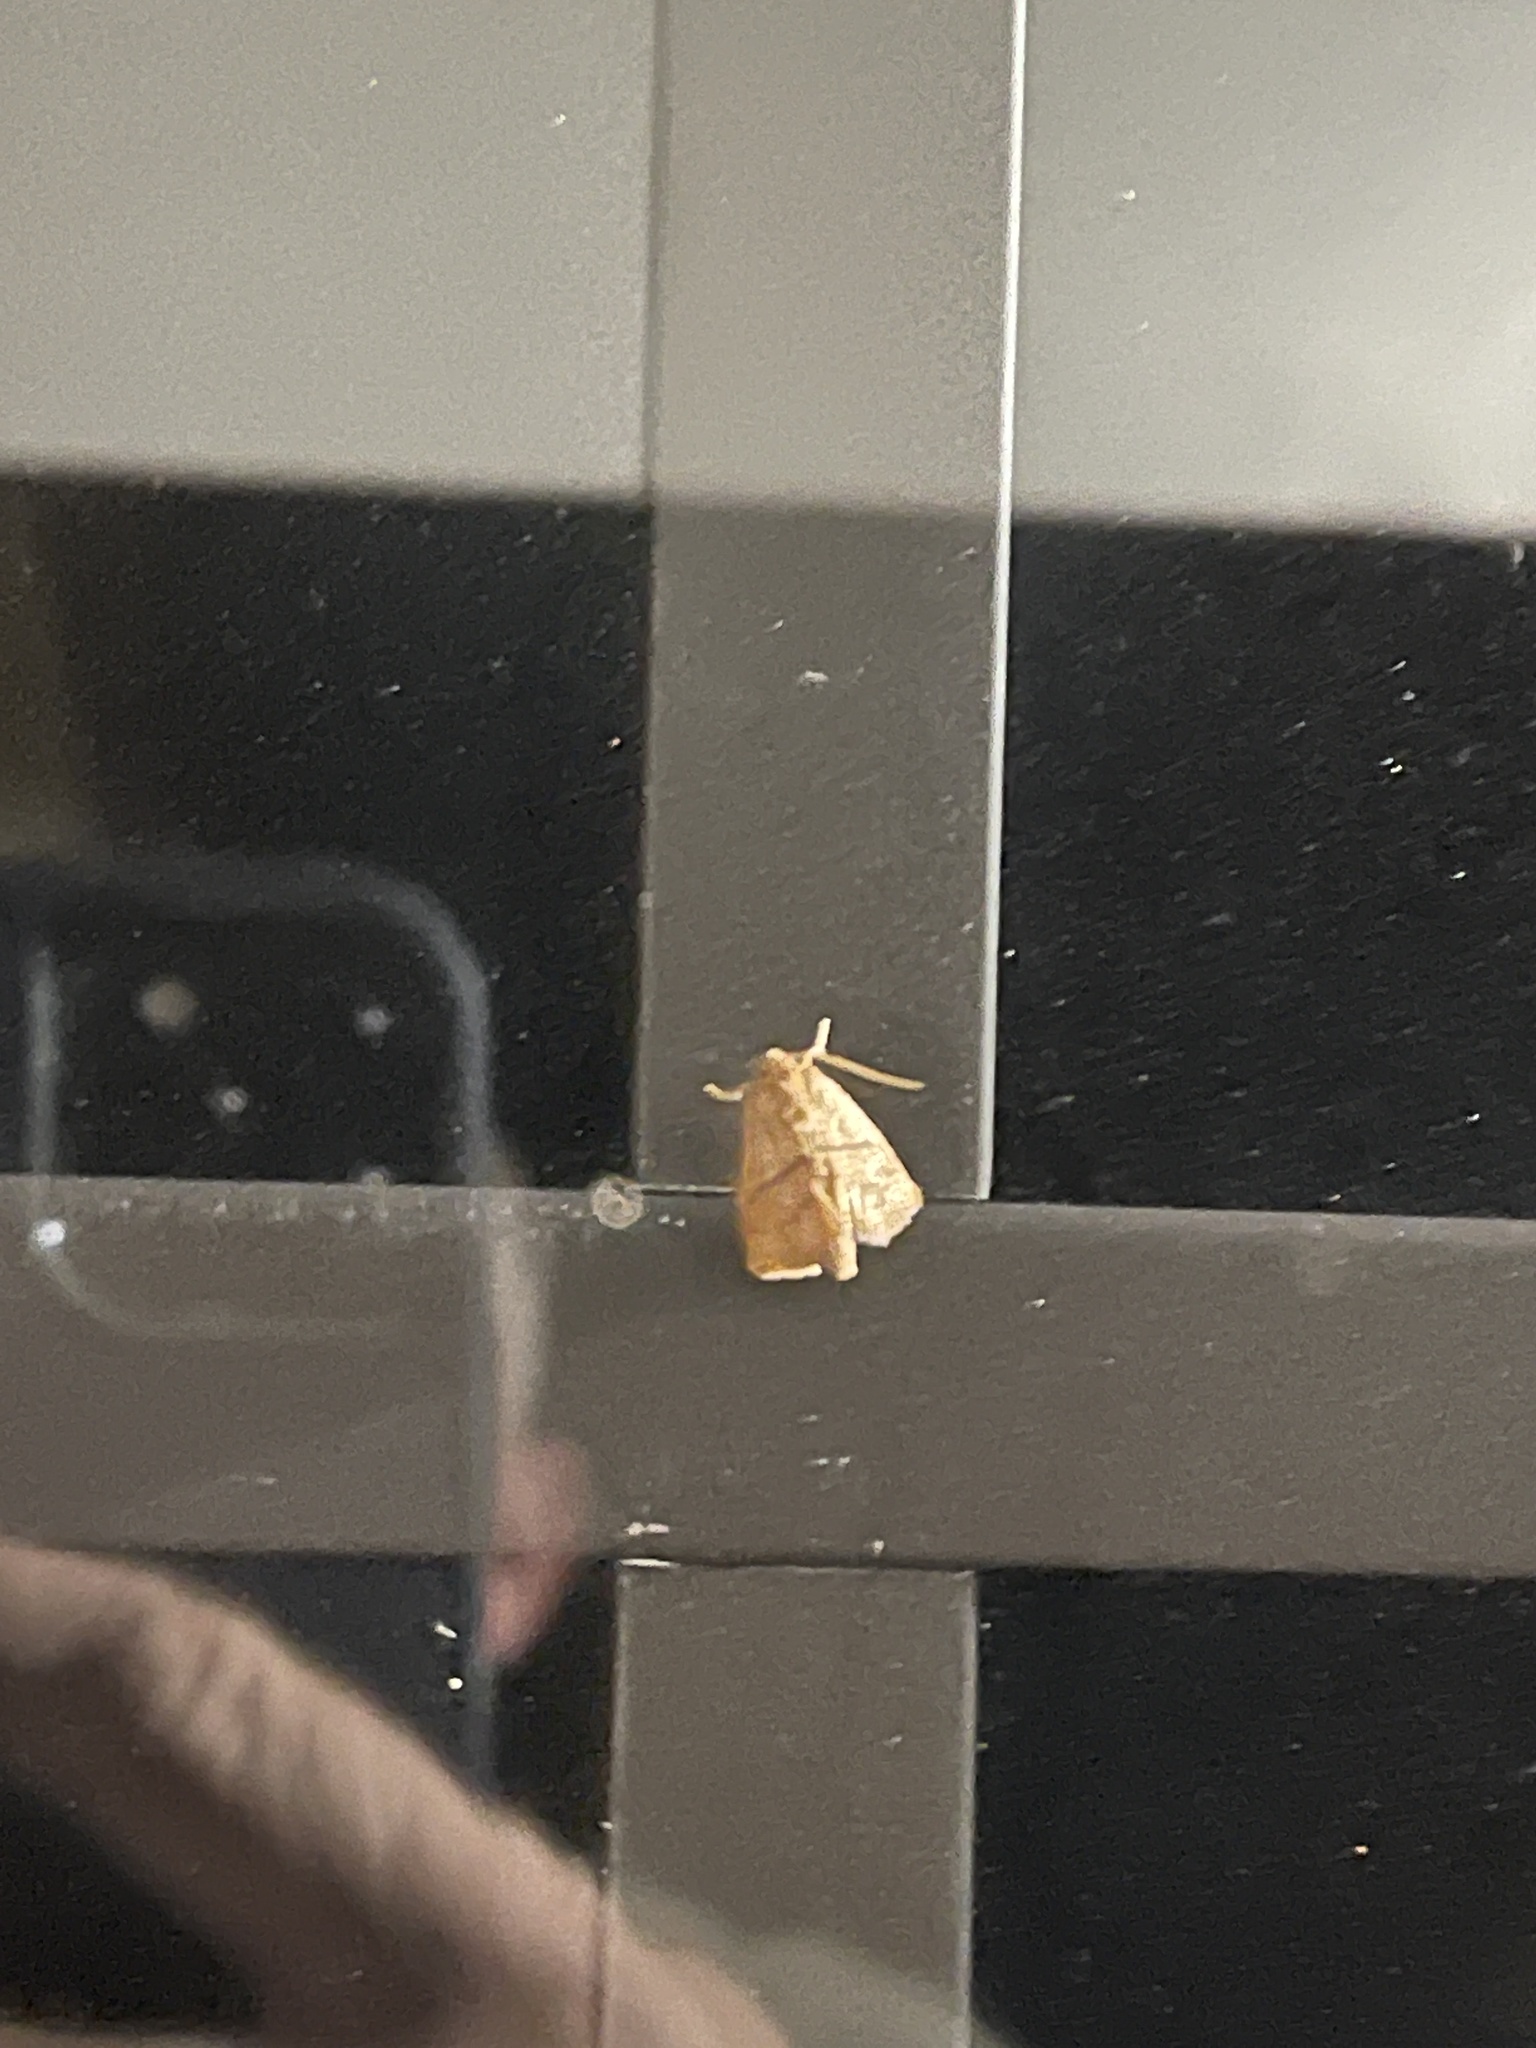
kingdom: Animalia
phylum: Arthropoda
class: Insecta
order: Lepidoptera
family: Limacodidae
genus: Apoda
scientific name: Apoda y-inversa
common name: Yellow-collared slug moth
